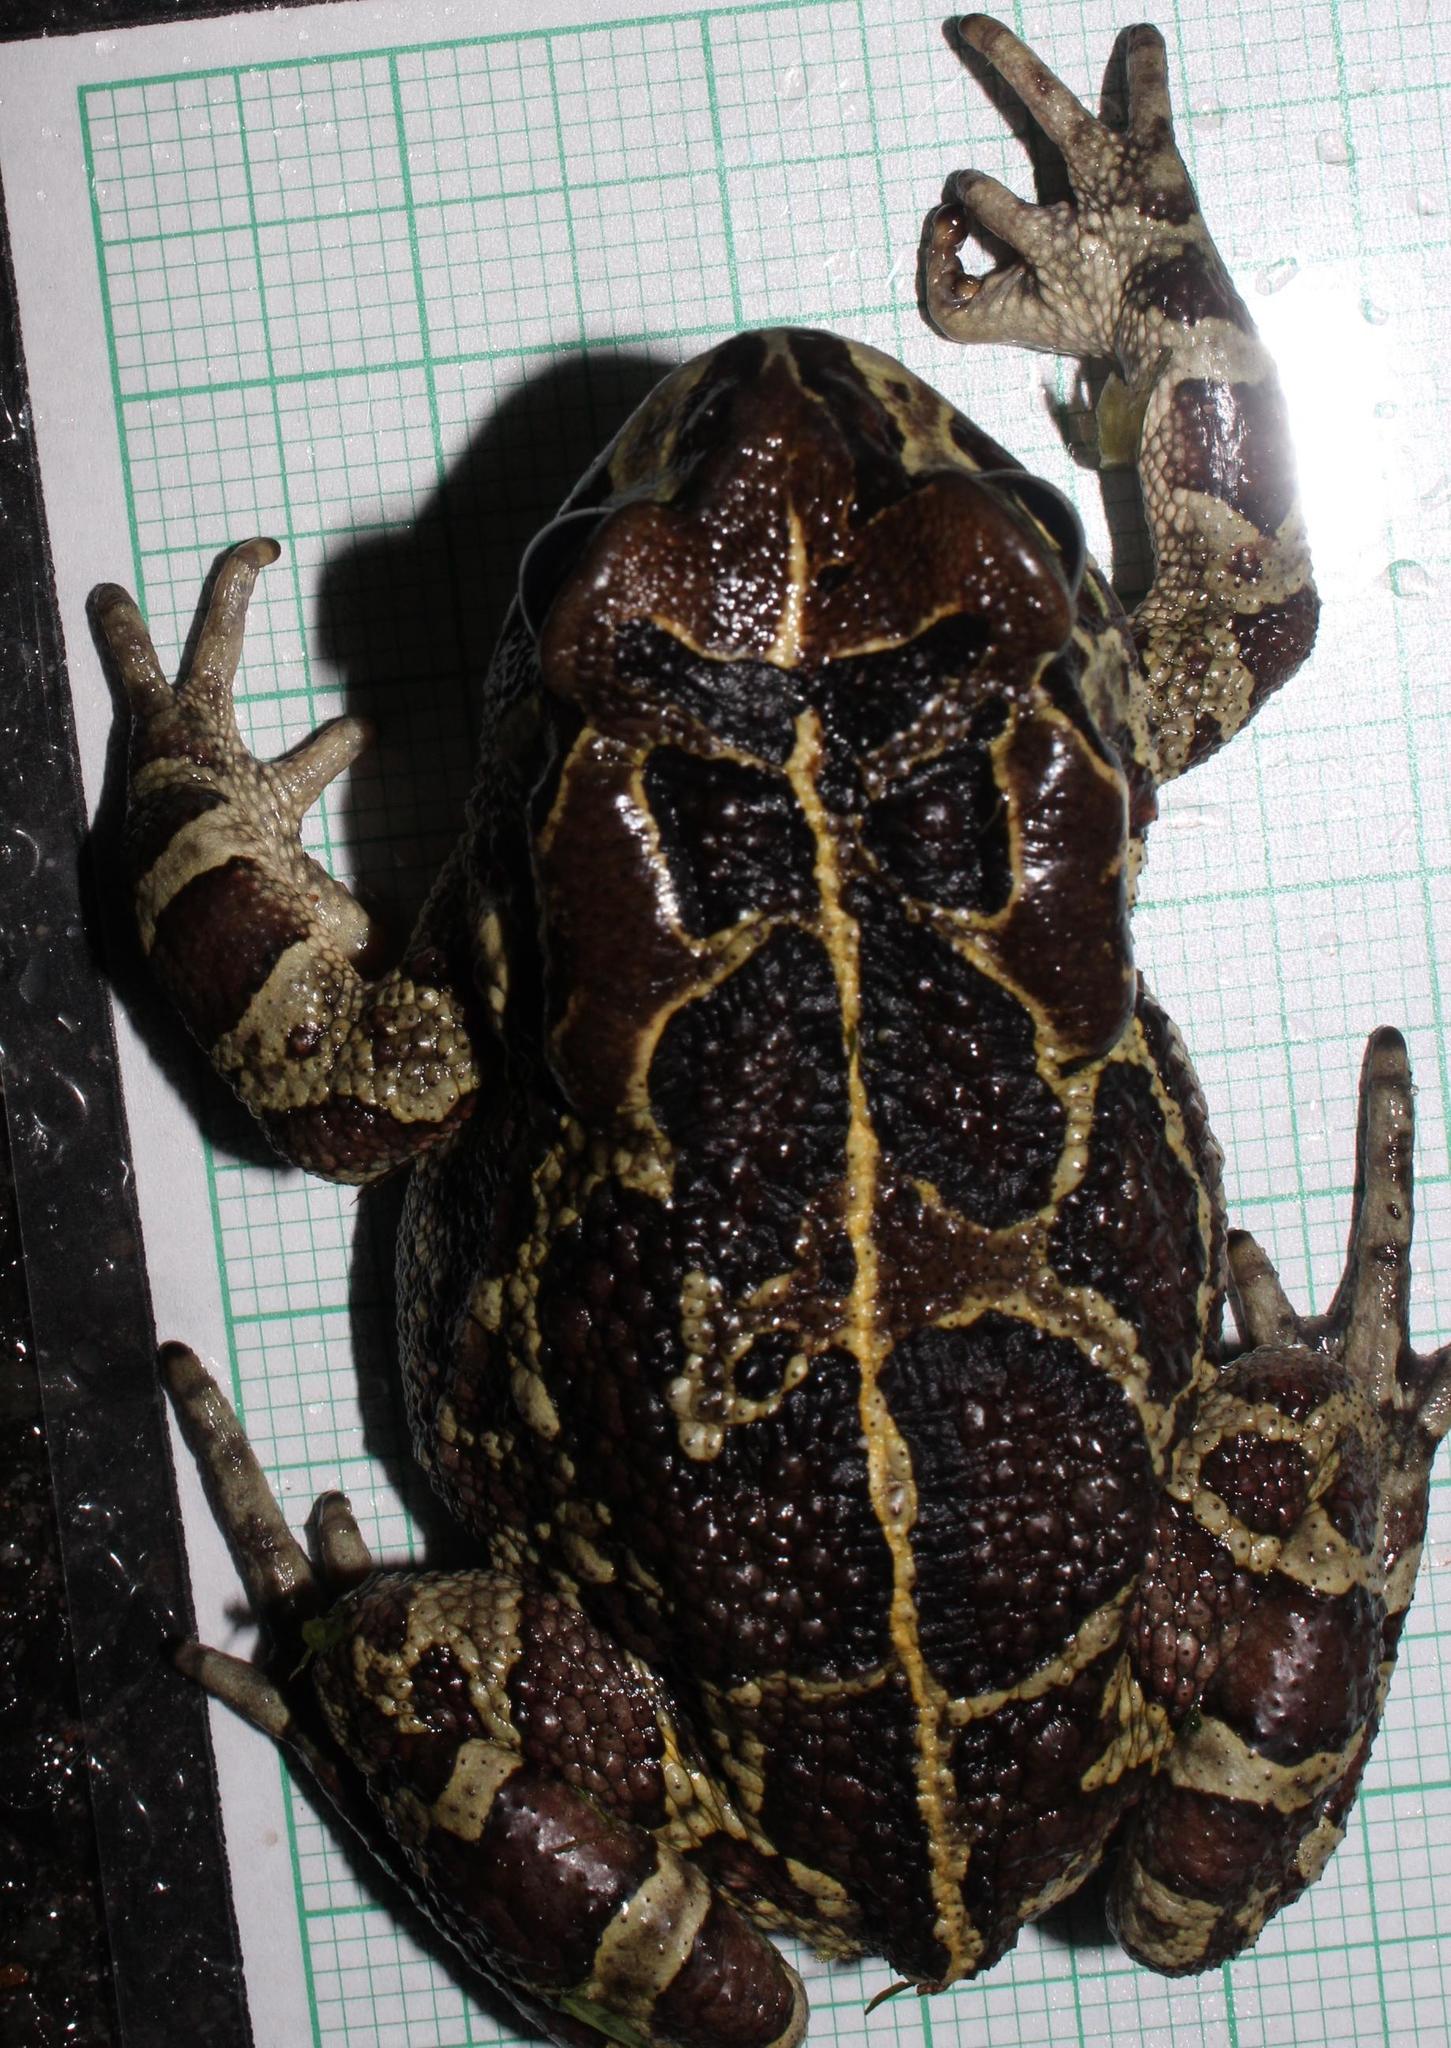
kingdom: Animalia
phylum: Chordata
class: Amphibia
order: Anura
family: Bufonidae
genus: Sclerophrys
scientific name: Sclerophrys pantherina
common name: Panther toad
